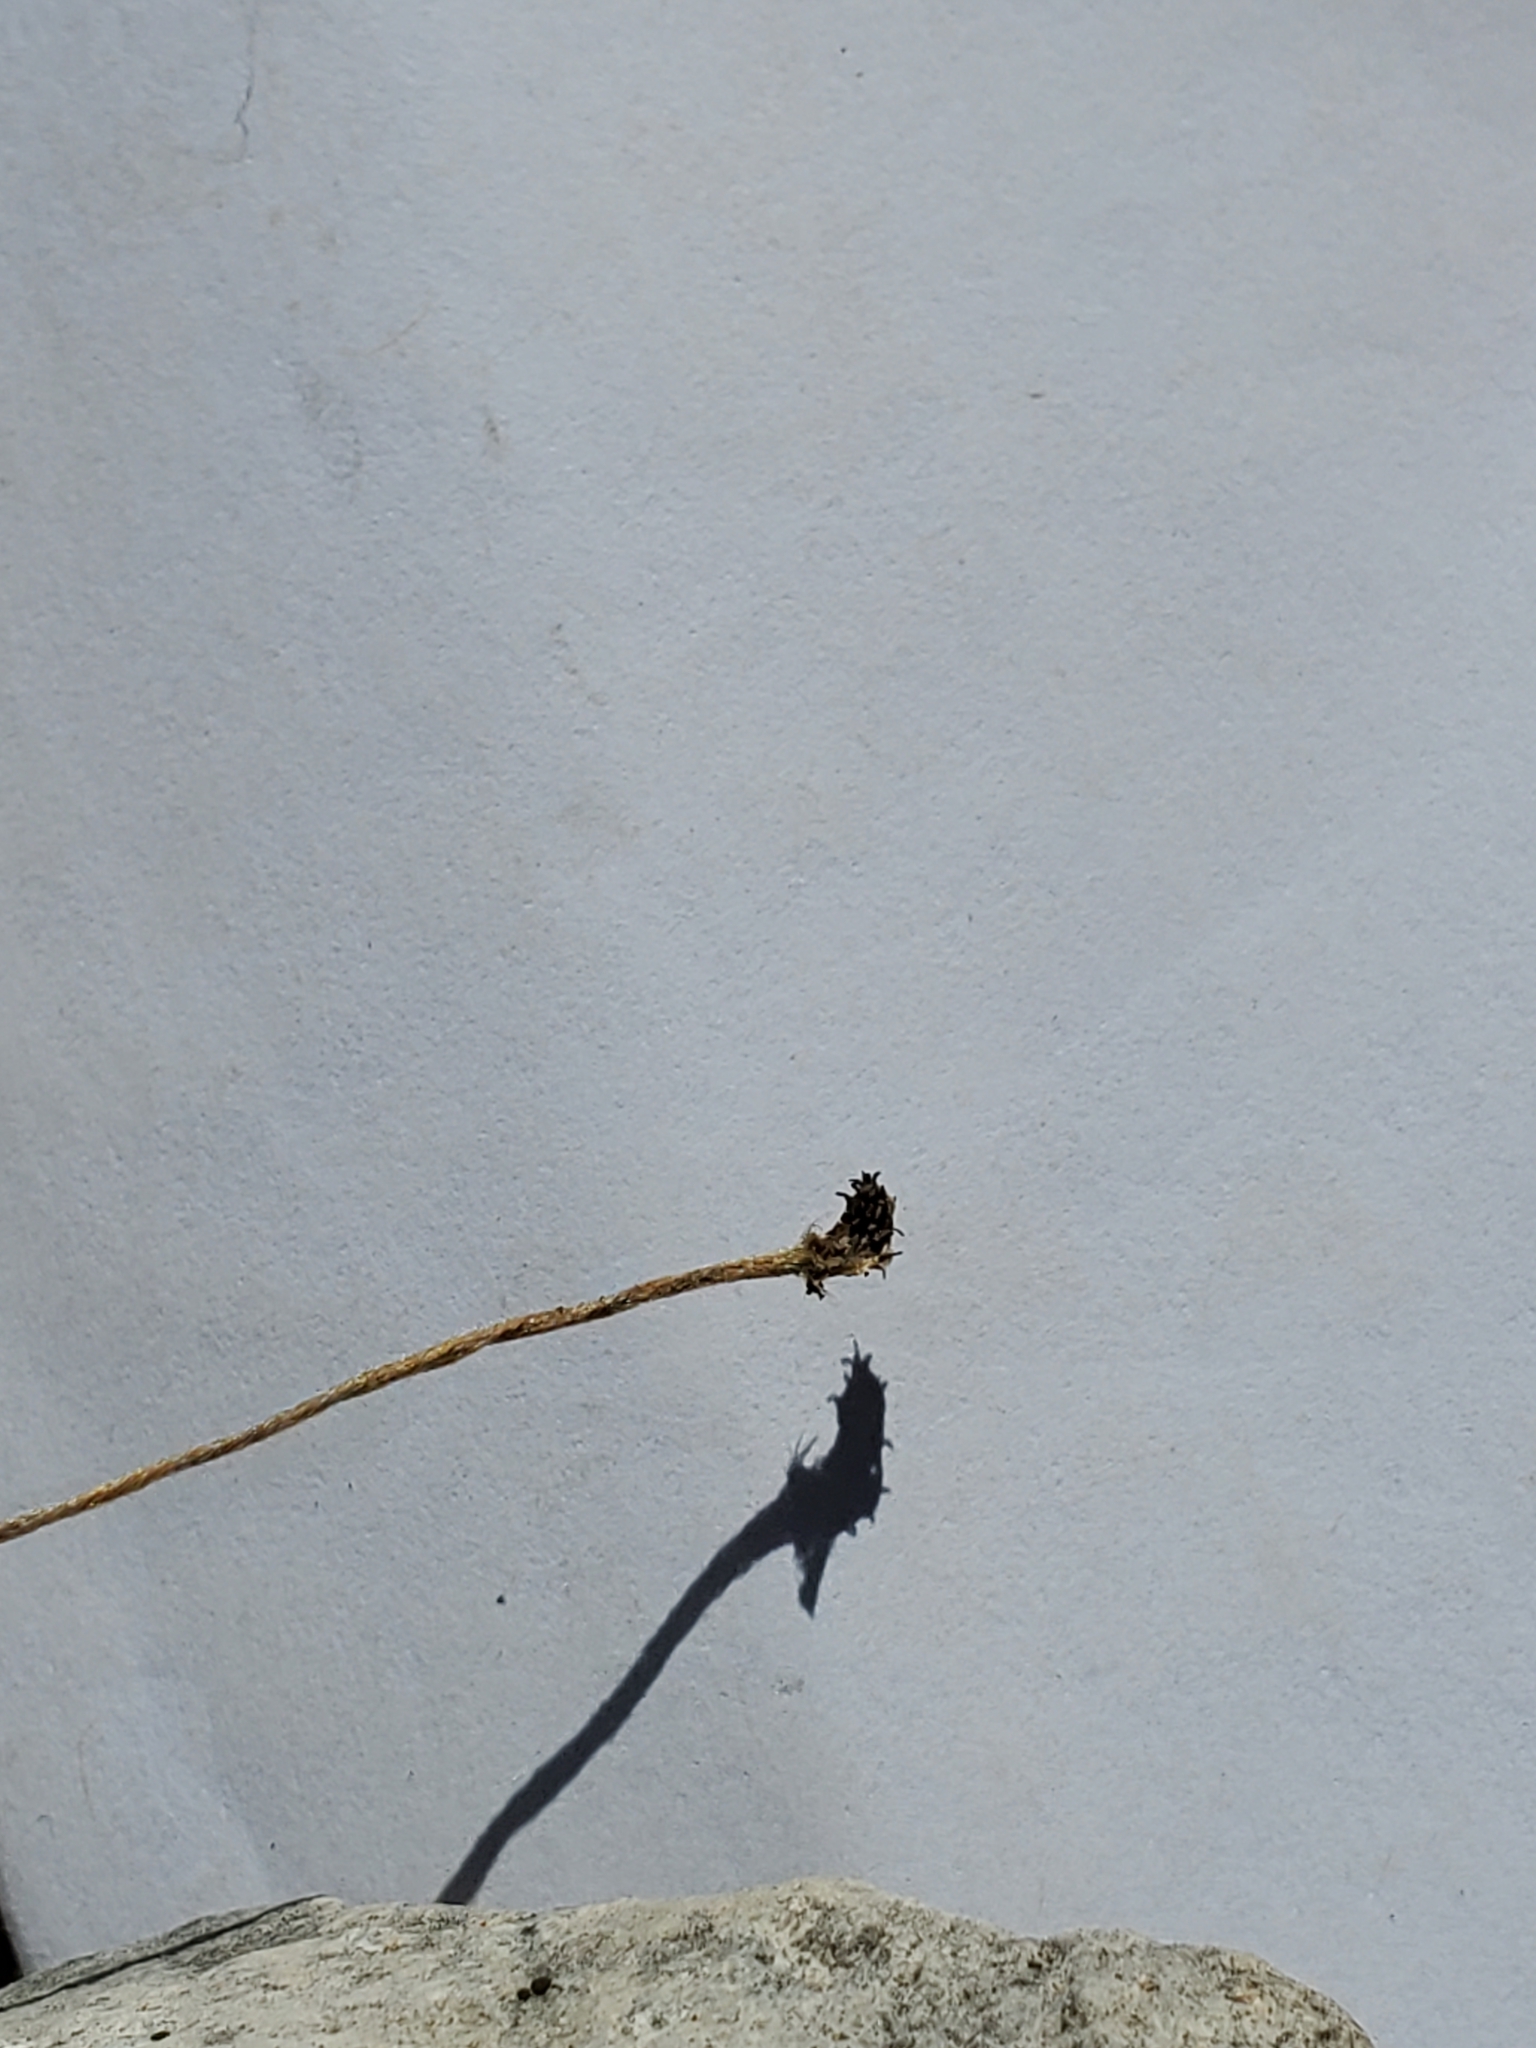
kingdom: Plantae
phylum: Tracheophyta
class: Magnoliopsida
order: Ranunculales
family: Ranunculaceae
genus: Anemone
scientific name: Anemone edwardsiana
